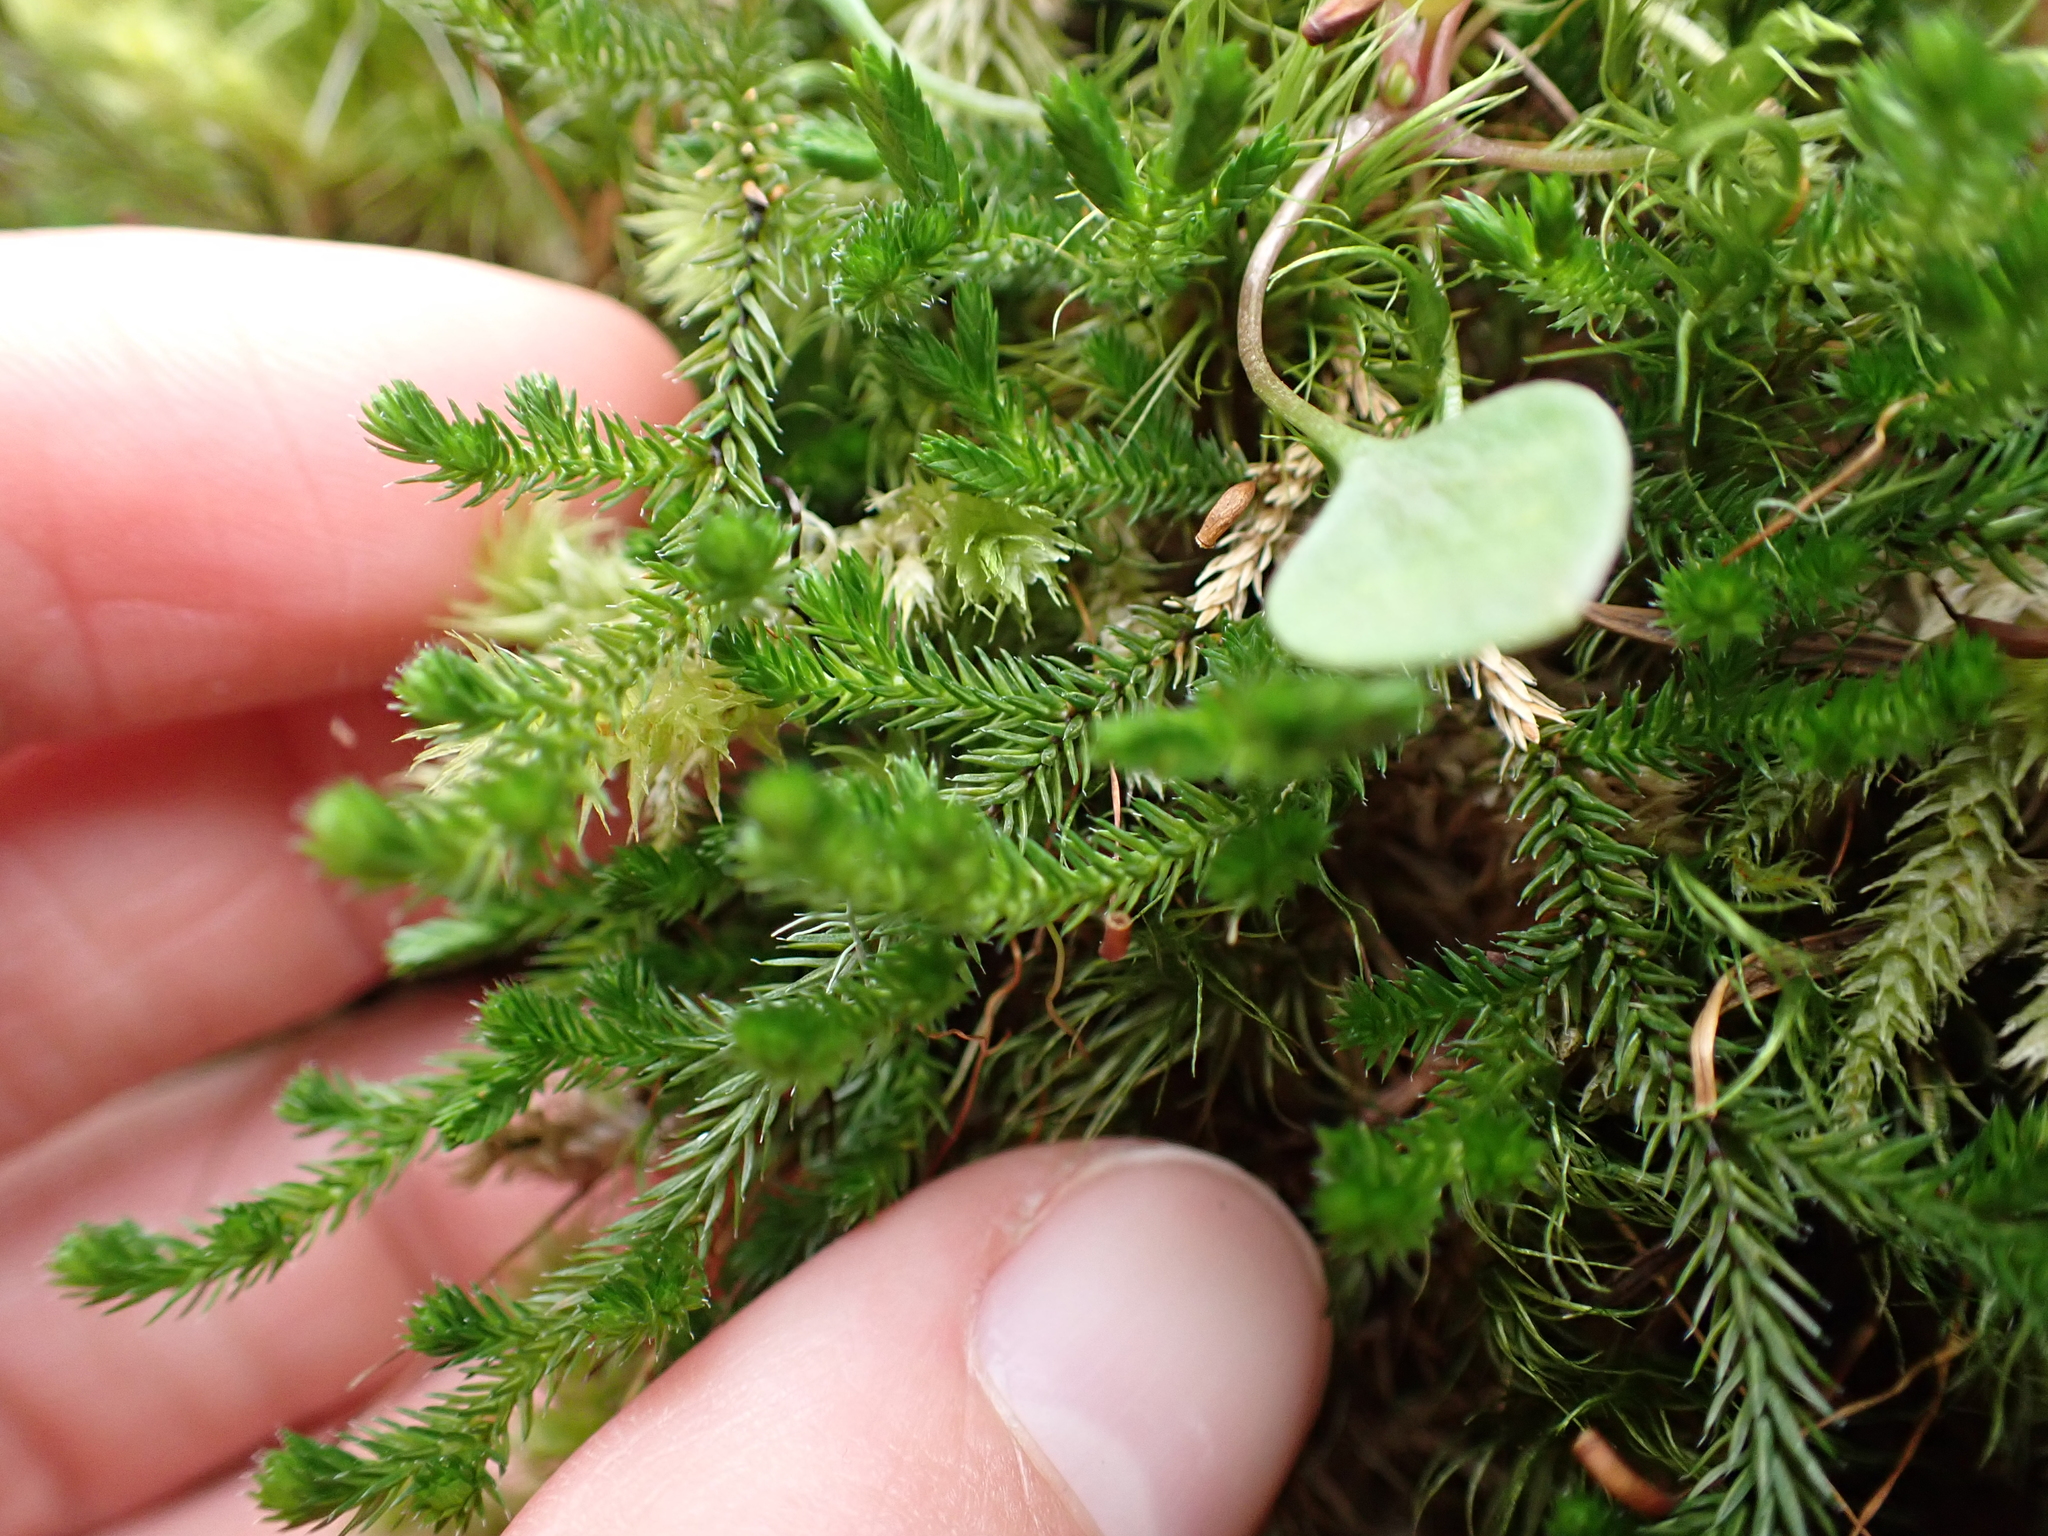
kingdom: Plantae
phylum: Tracheophyta
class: Lycopodiopsida
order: Selaginellales
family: Selaginellaceae
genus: Selaginella
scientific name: Selaginella wallacei
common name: Wallace's selaginella
